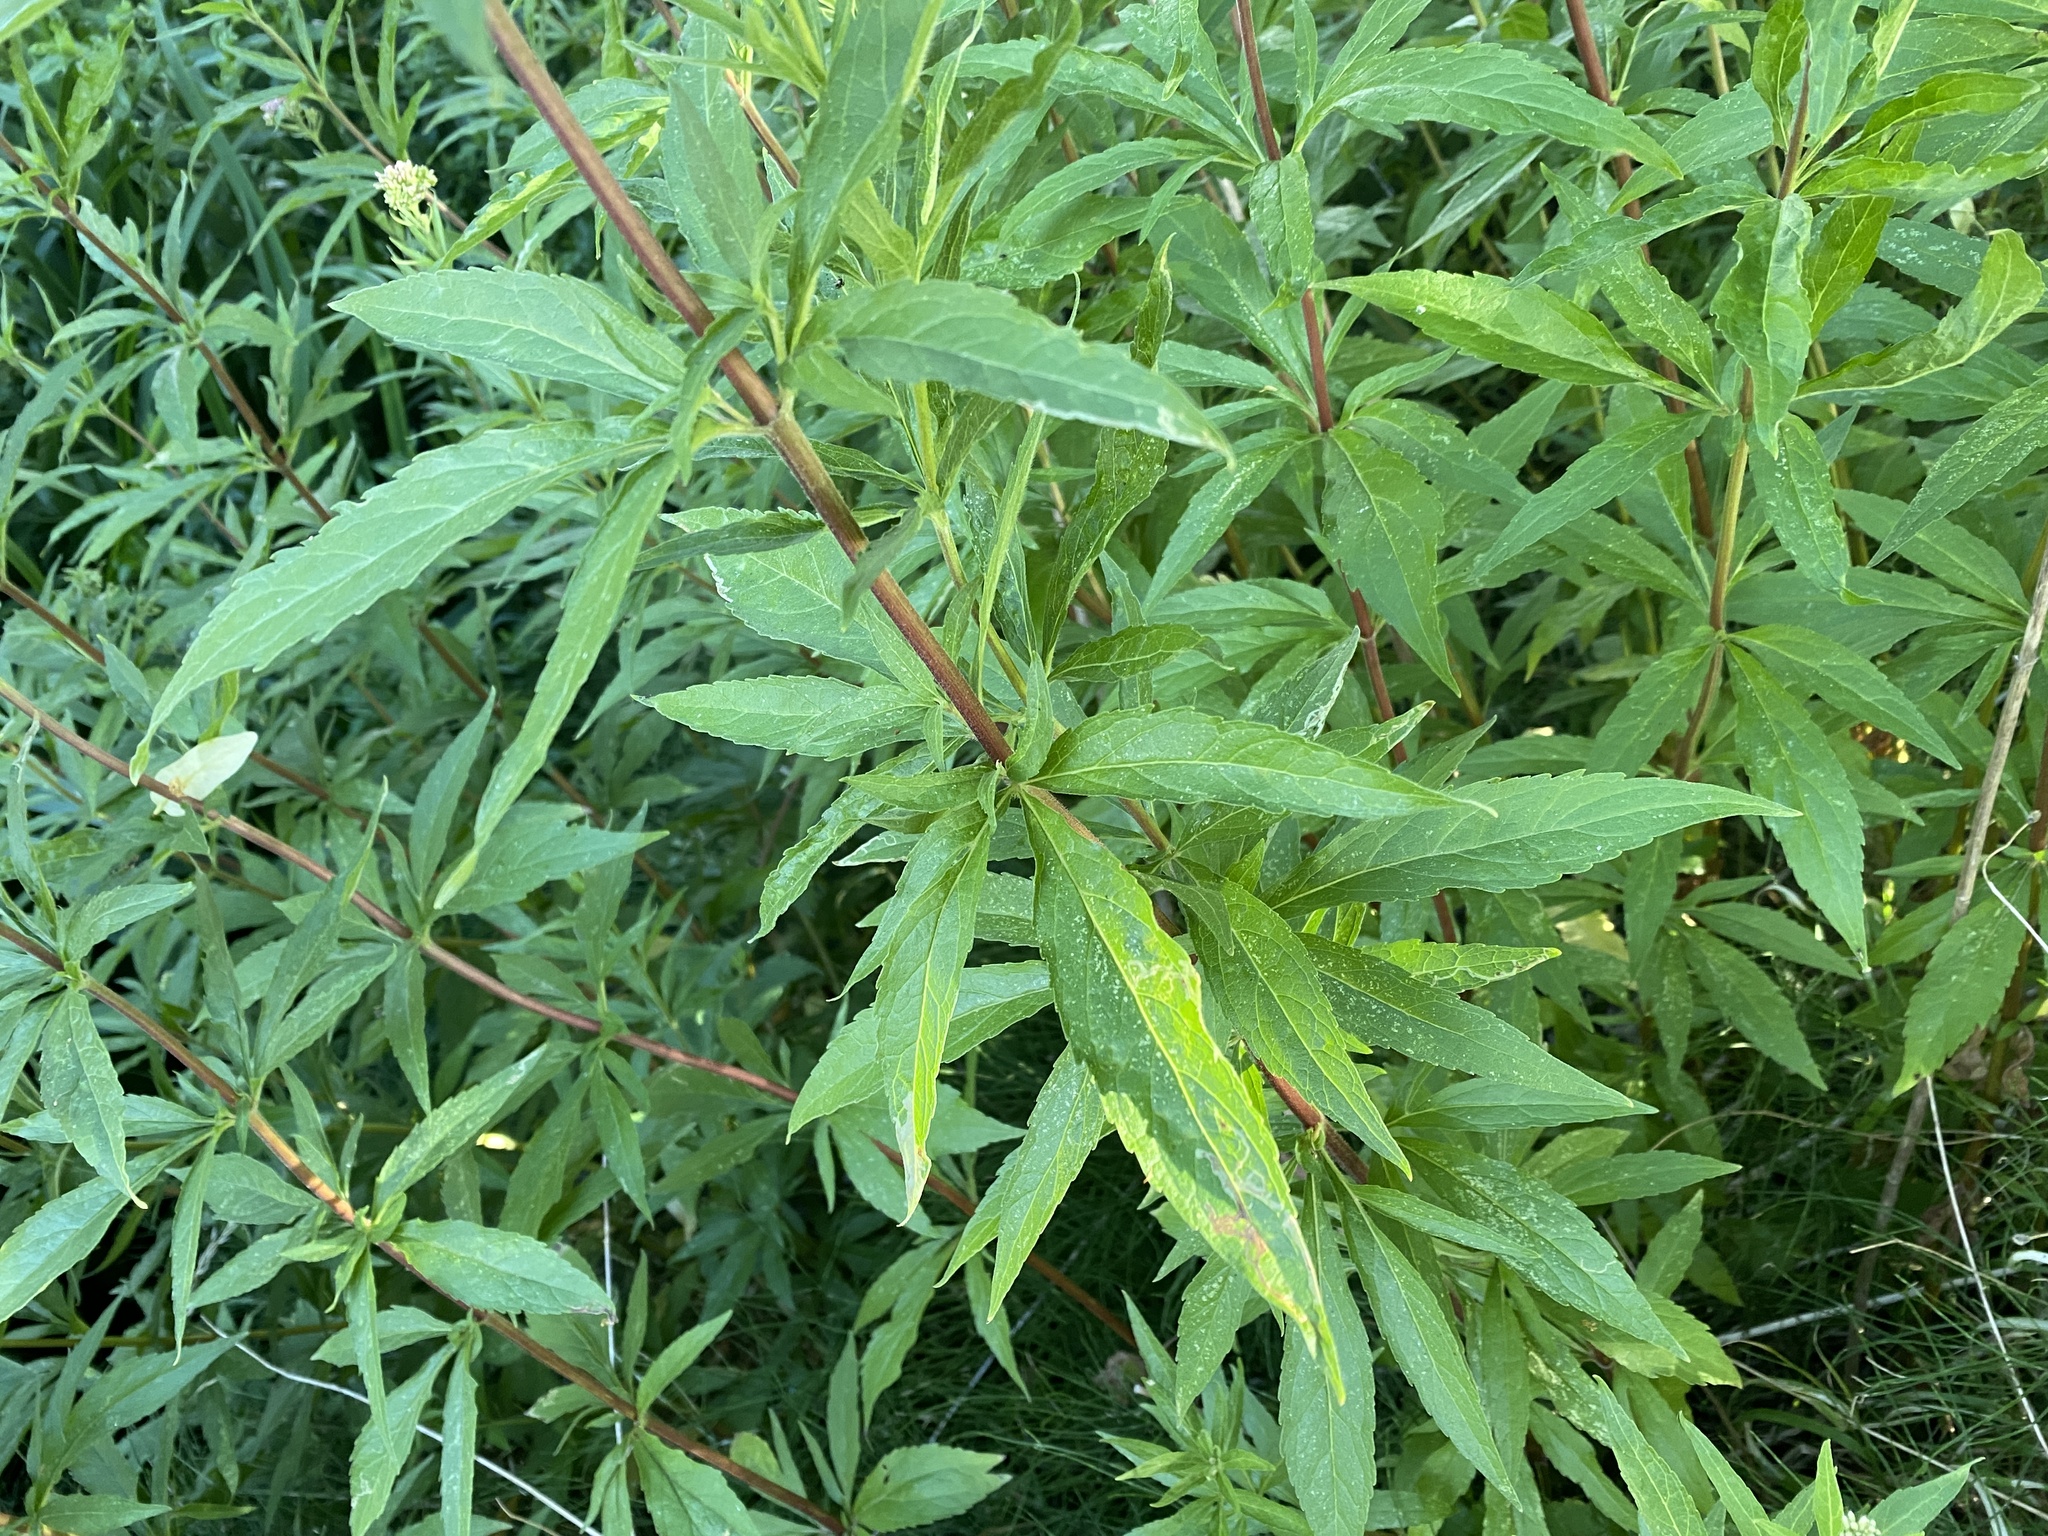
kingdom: Plantae
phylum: Tracheophyta
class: Magnoliopsida
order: Asterales
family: Asteraceae
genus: Eupatorium
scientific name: Eupatorium cannabinum
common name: Hemp-agrimony
